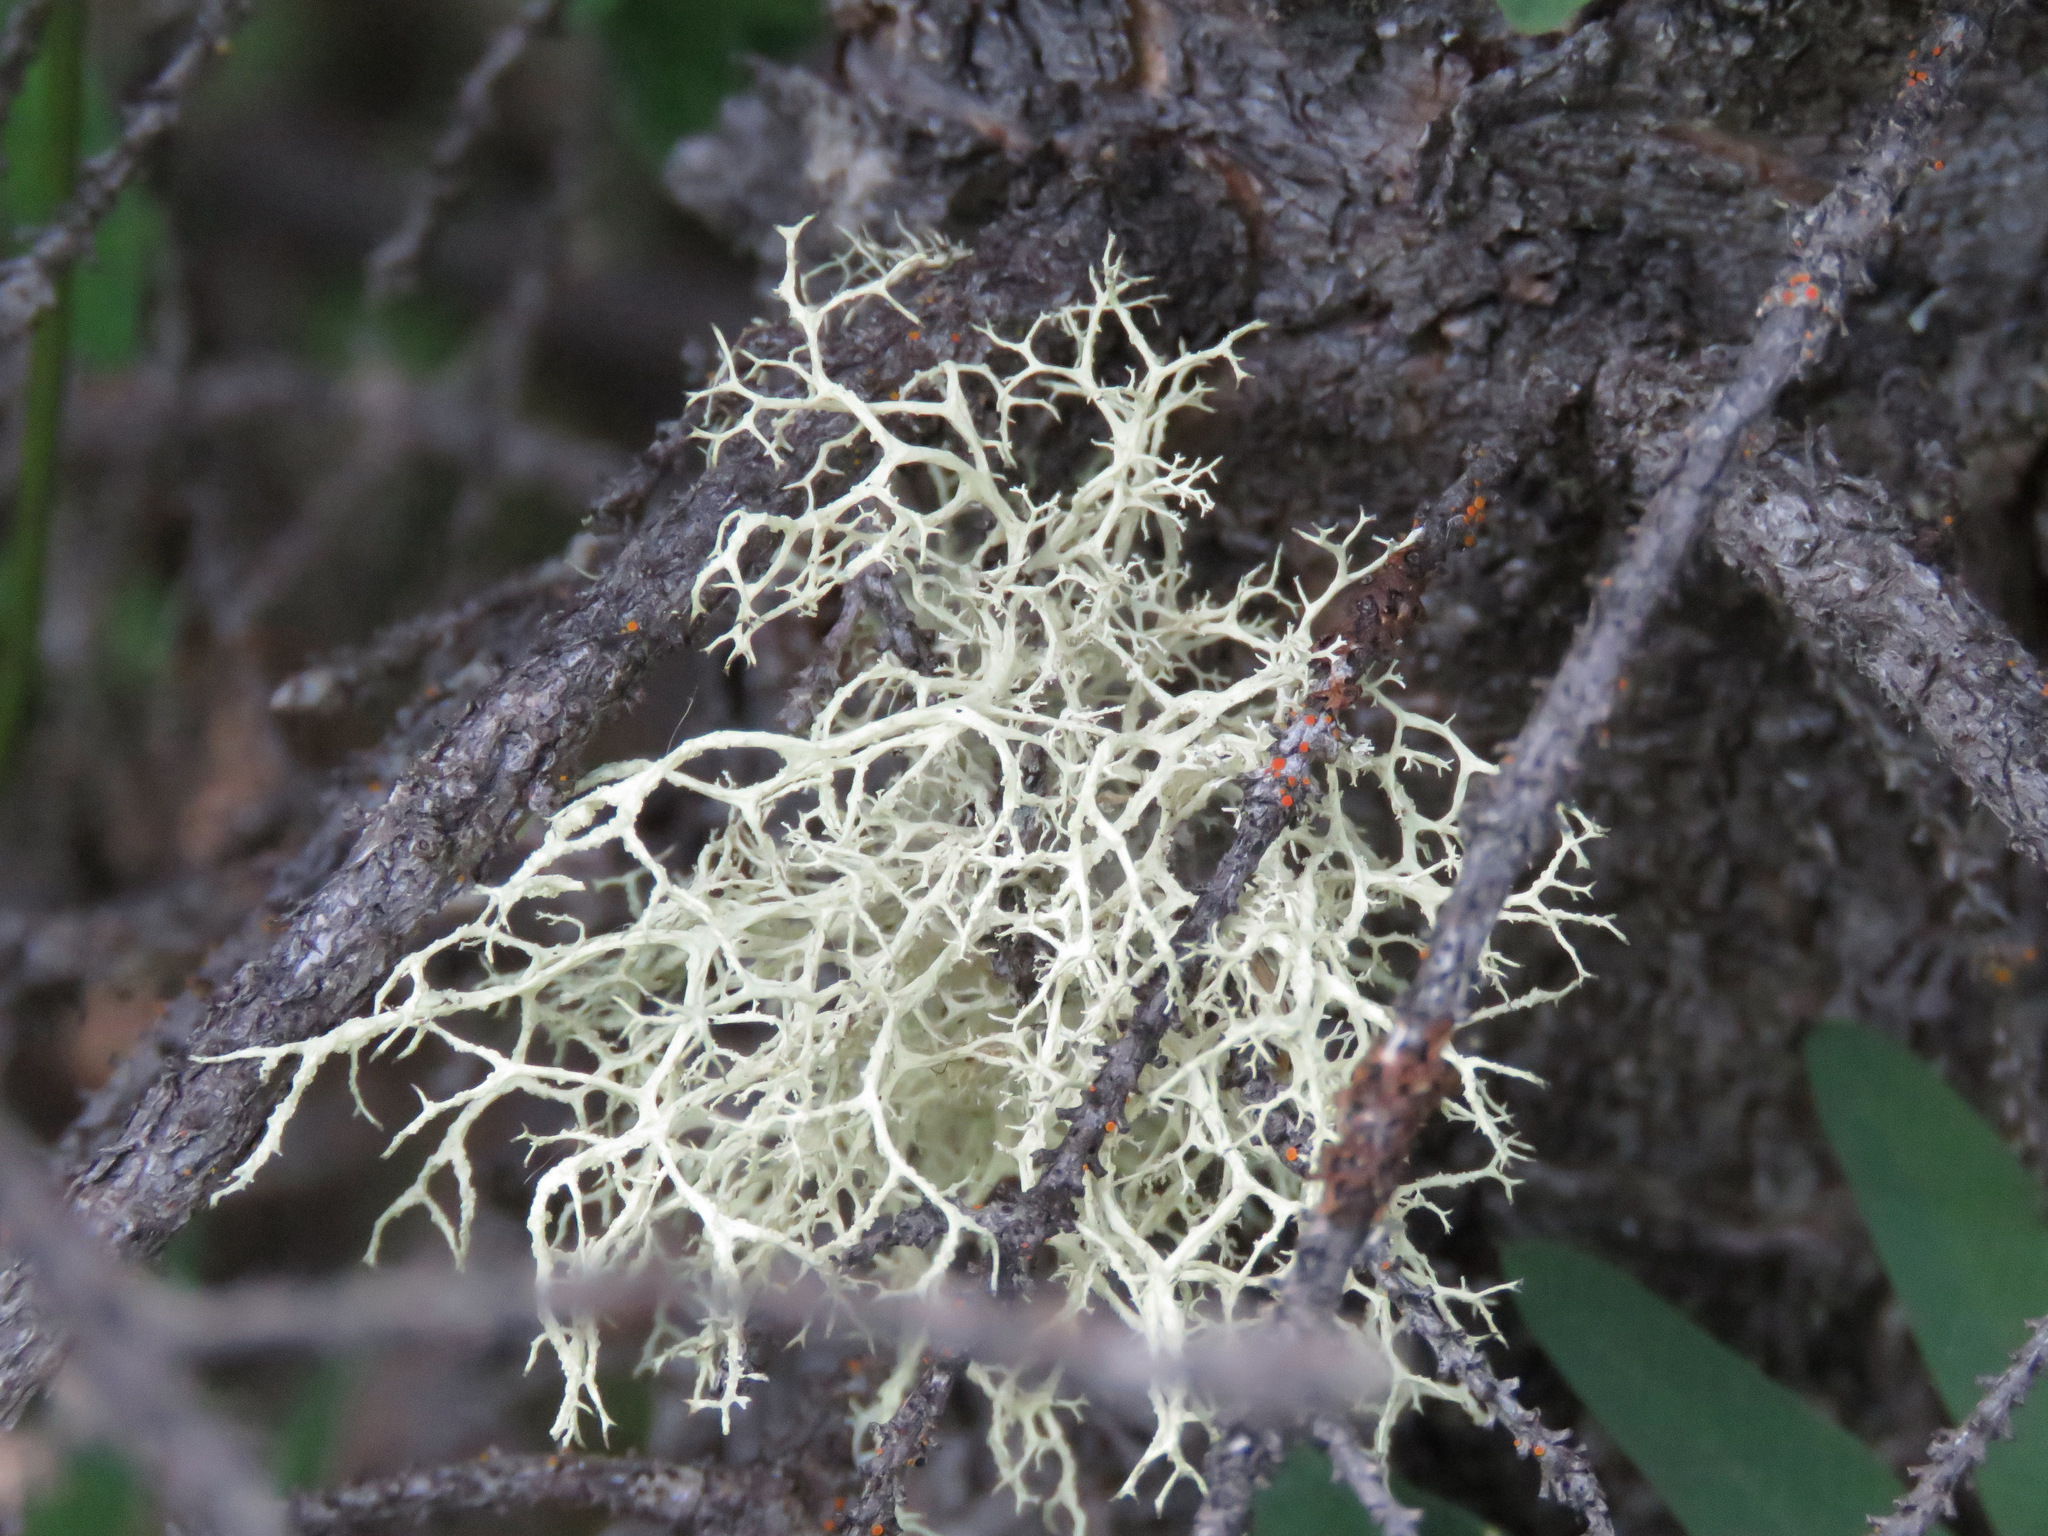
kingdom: Fungi
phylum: Ascomycota
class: Lecanoromycetes
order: Lecanorales
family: Parmeliaceae
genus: Evernia
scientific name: Evernia mesomorpha
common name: Boreal oak moss lichen
